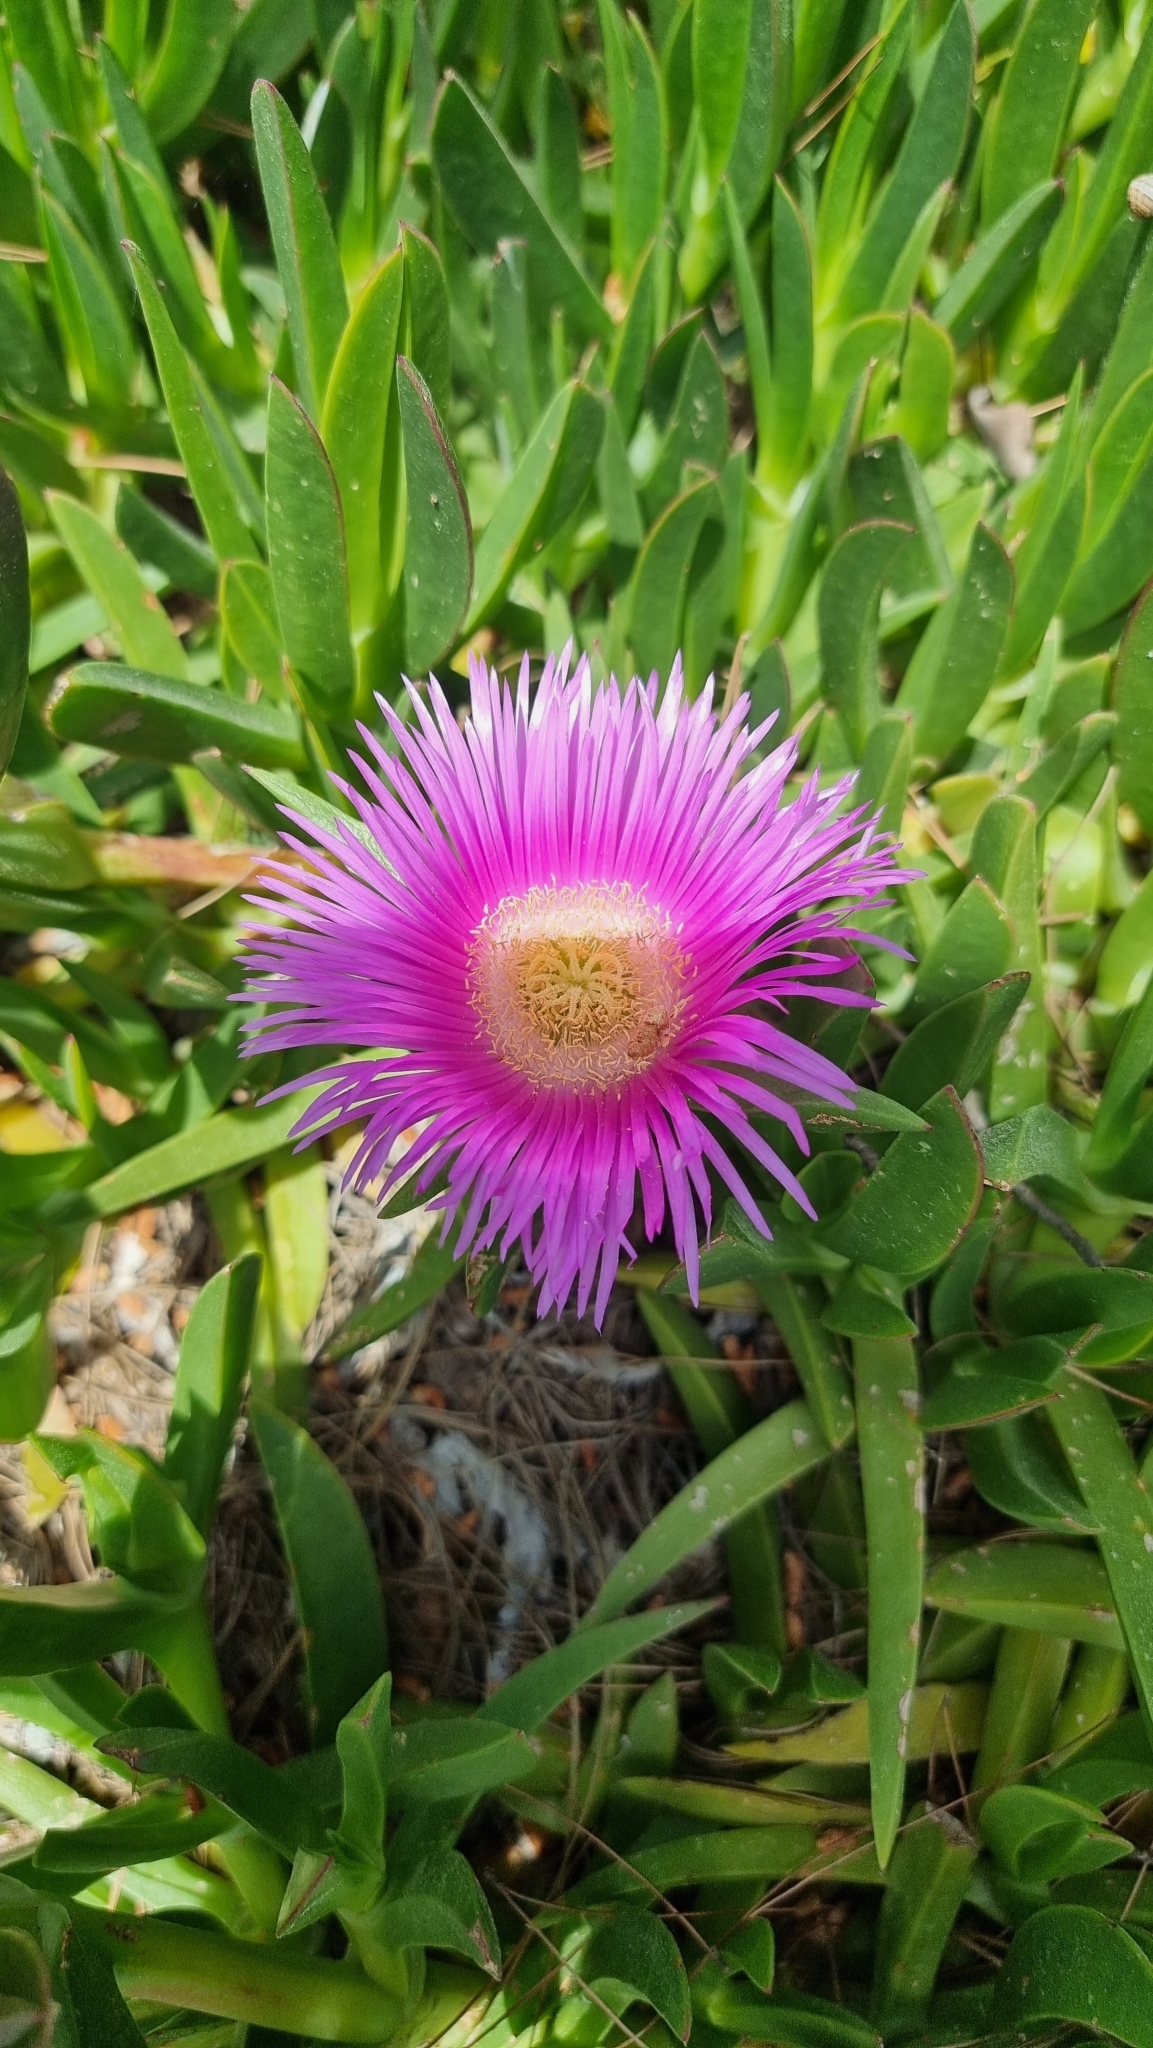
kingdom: Plantae
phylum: Tracheophyta
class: Magnoliopsida
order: Caryophyllales
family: Aizoaceae
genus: Carpobrotus
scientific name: Carpobrotus acinaciformis
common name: Sally-my-handsome
